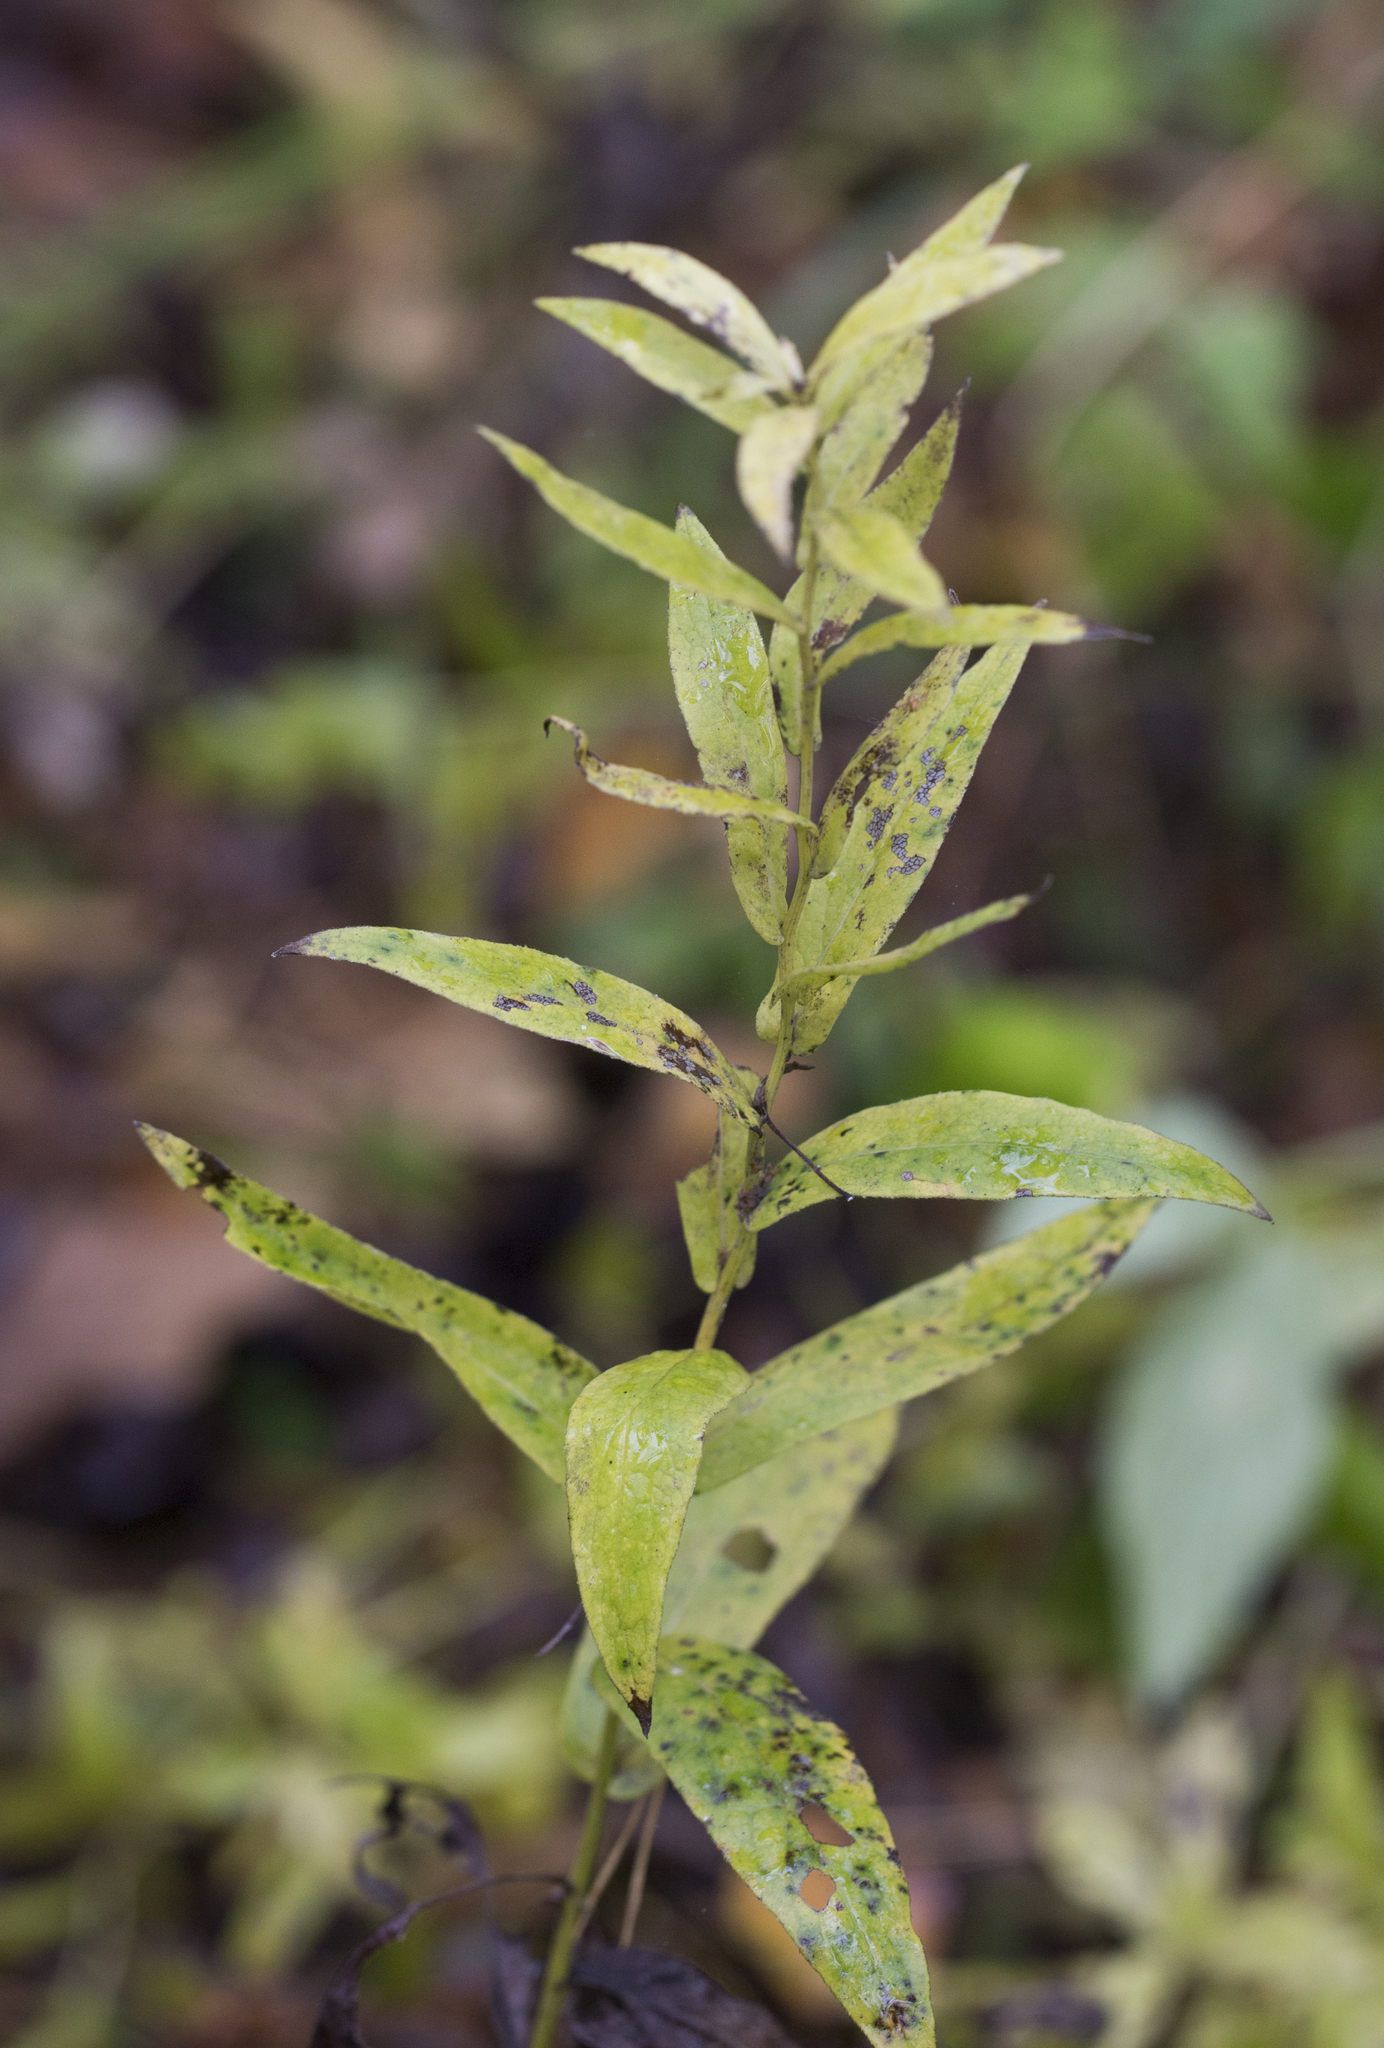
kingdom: Plantae
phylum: Tracheophyta
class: Magnoliopsida
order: Asterales
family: Asteraceae
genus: Pentanema
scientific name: Pentanema salicinum
